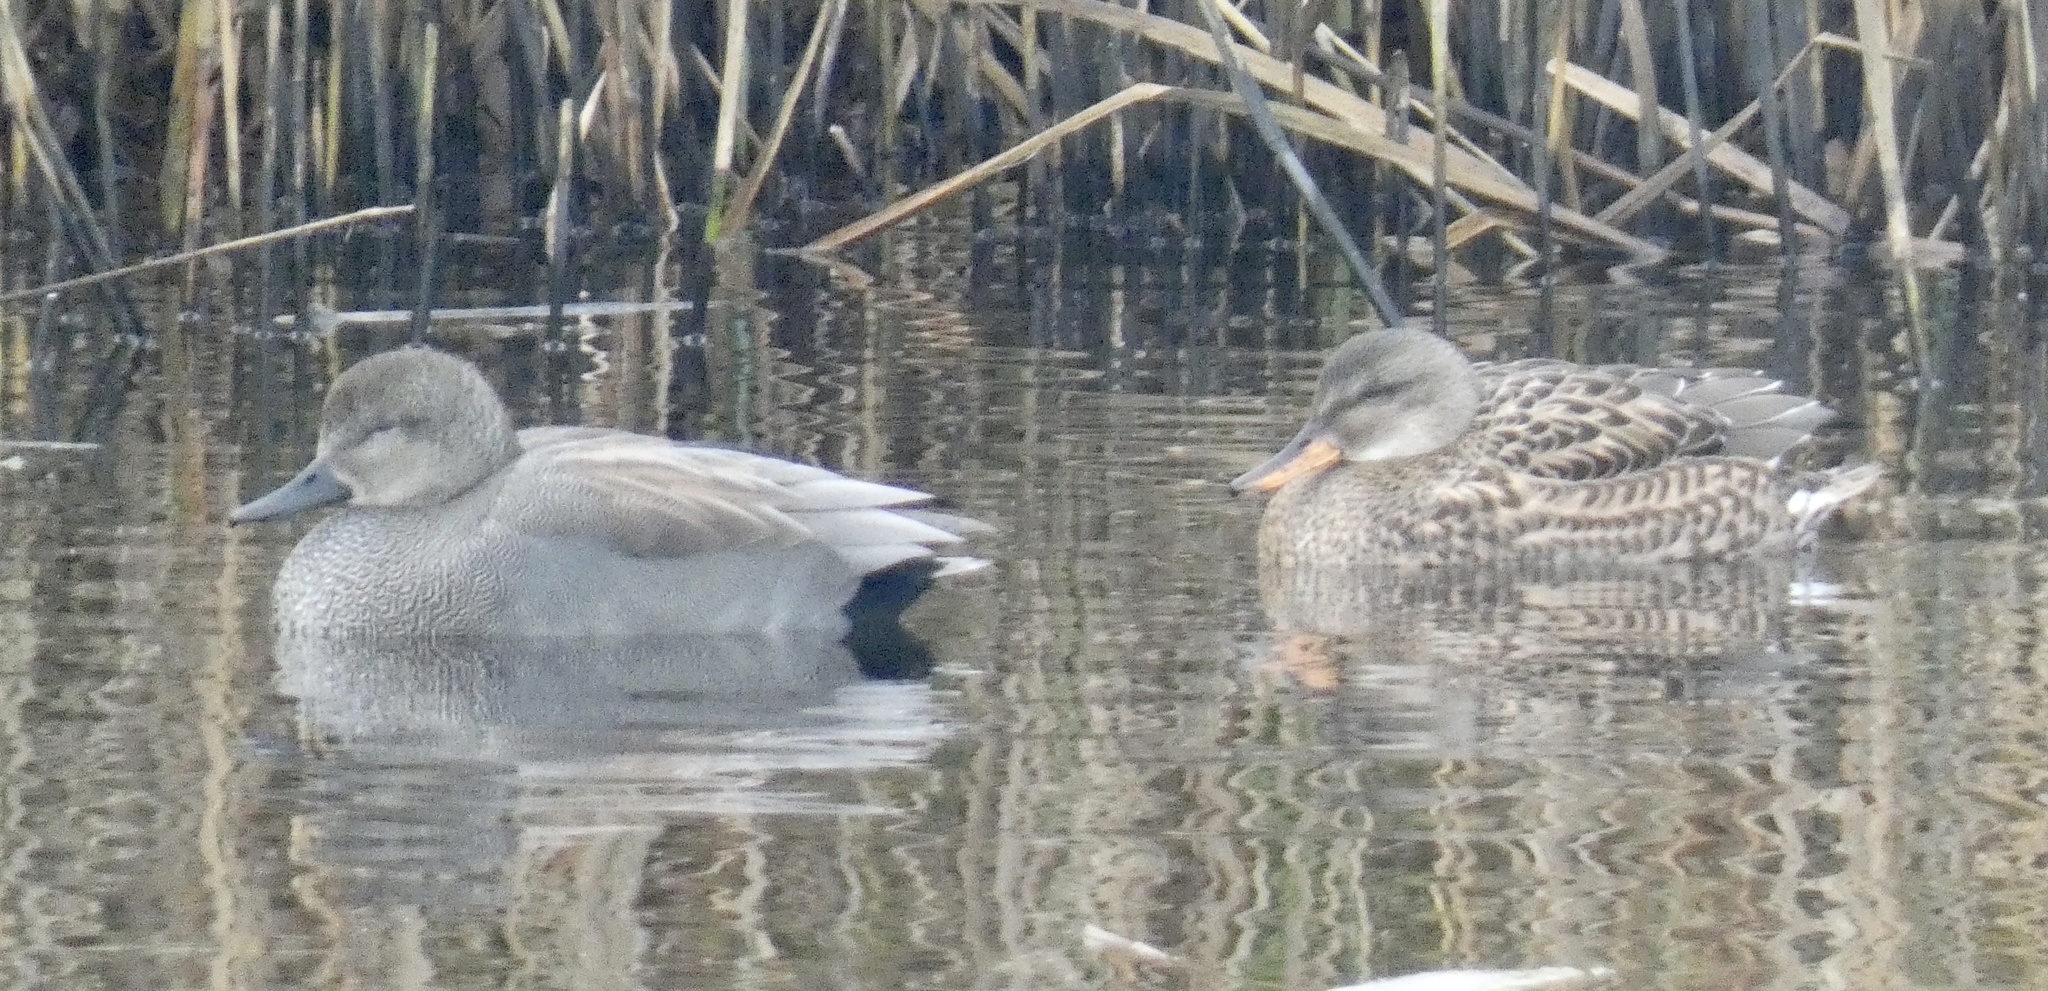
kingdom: Animalia
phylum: Chordata
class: Aves
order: Anseriformes
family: Anatidae
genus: Mareca
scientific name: Mareca strepera
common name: Gadwall
